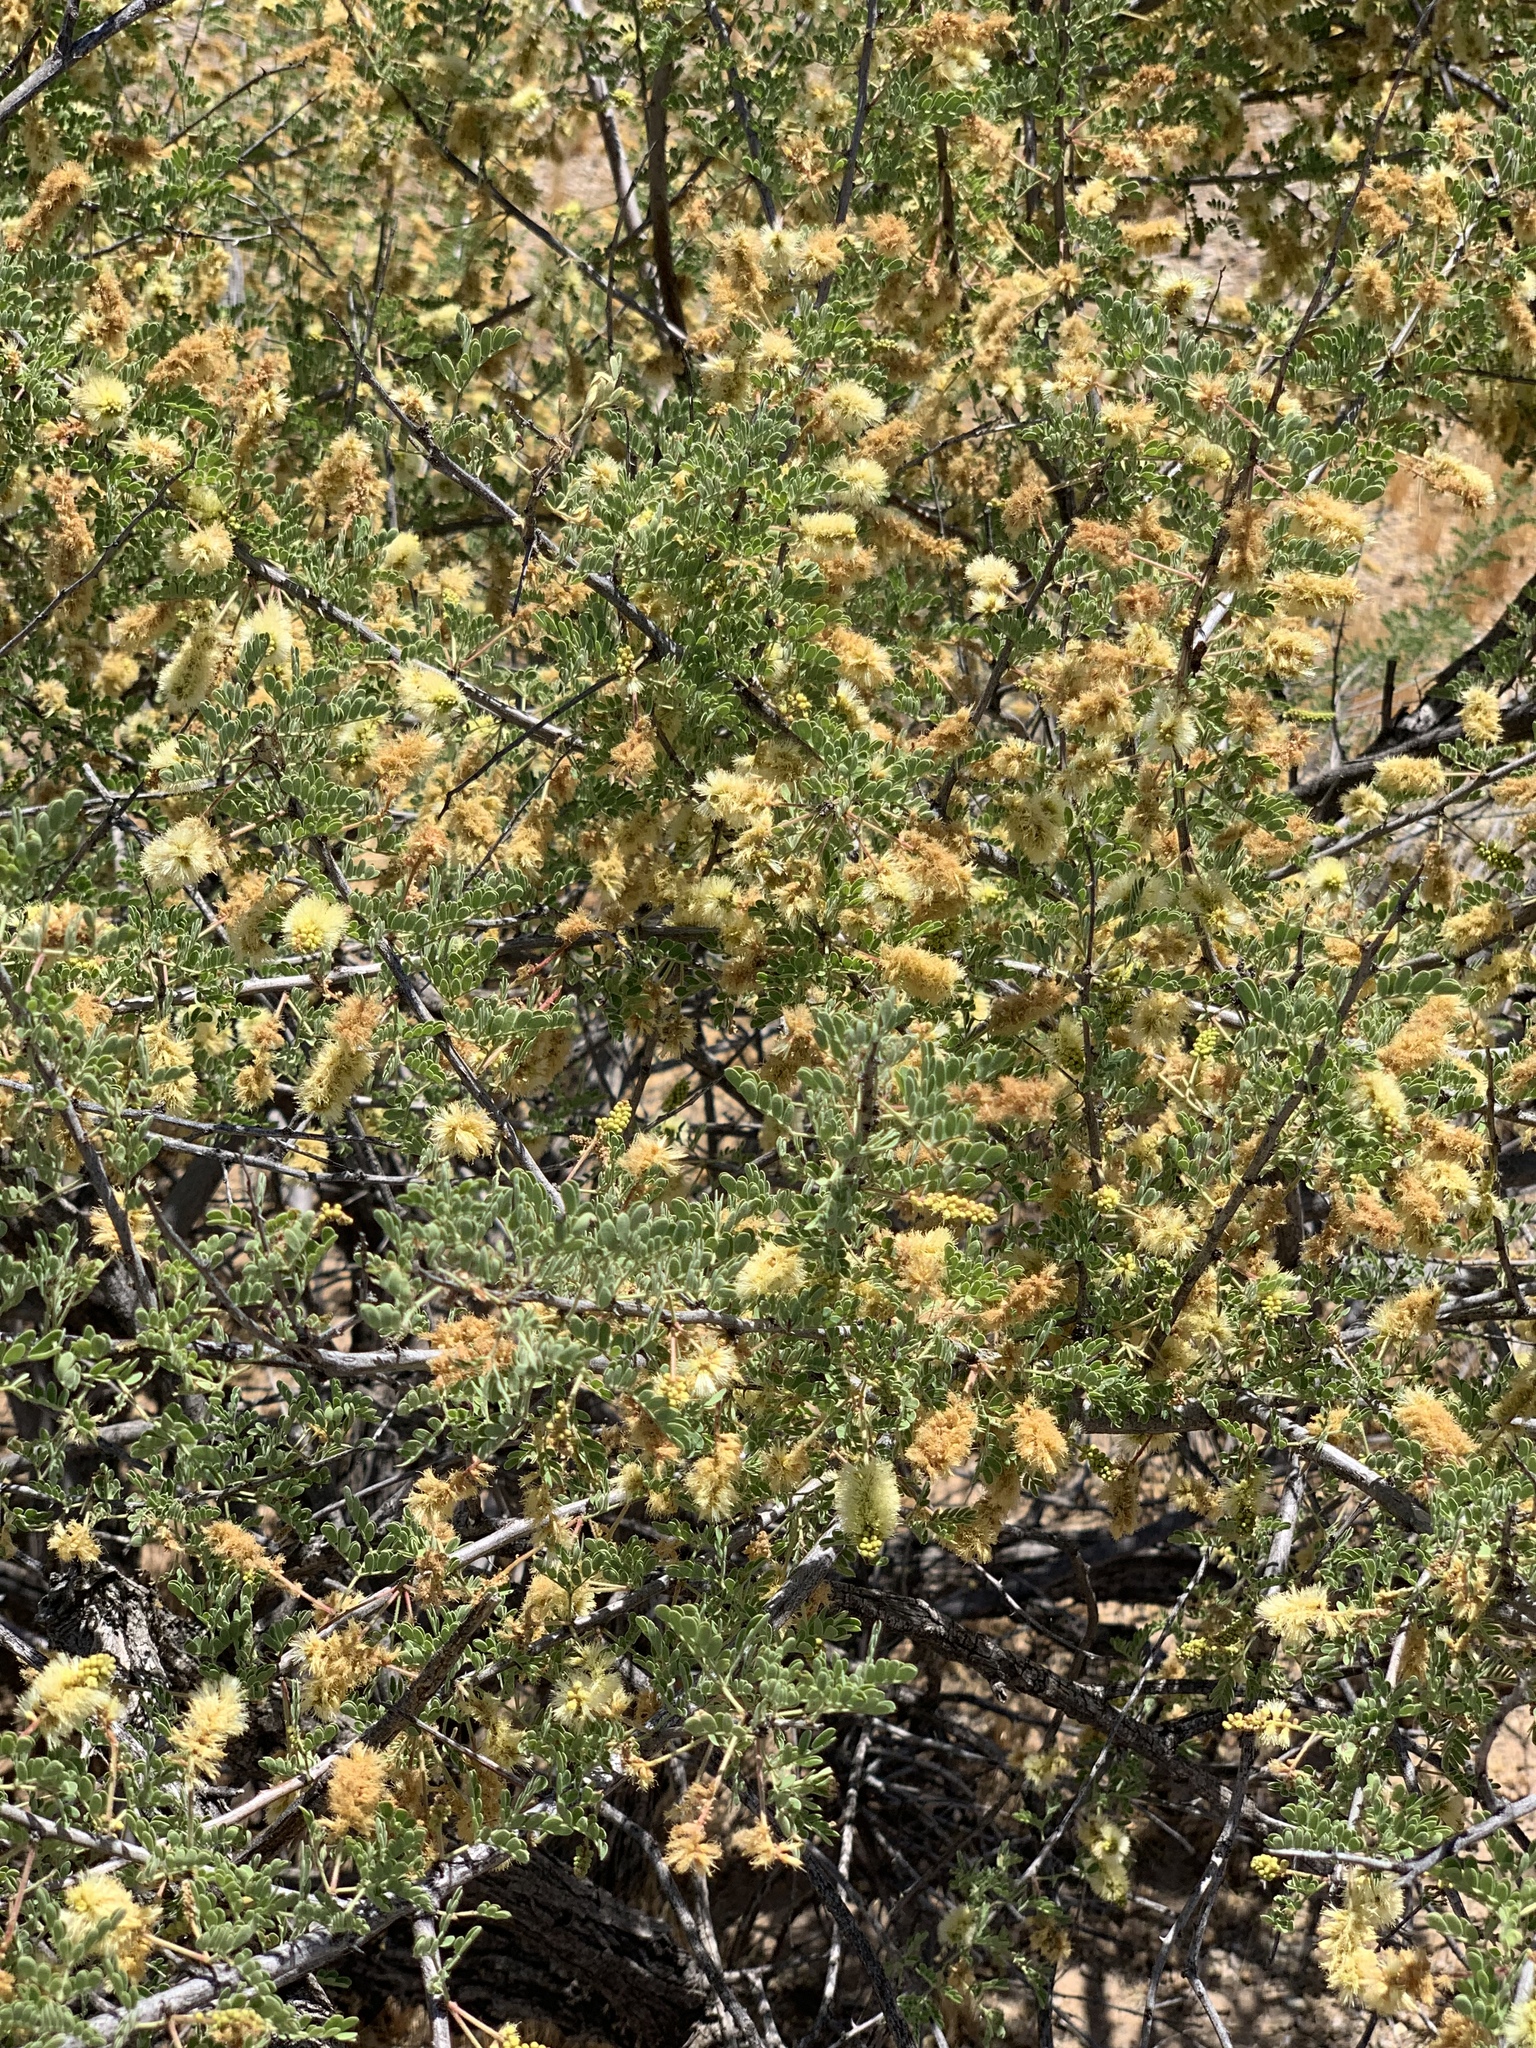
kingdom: Plantae
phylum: Tracheophyta
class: Magnoliopsida
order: Fabales
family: Fabaceae
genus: Senegalia
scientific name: Senegalia greggii
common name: Texas-mimosa
